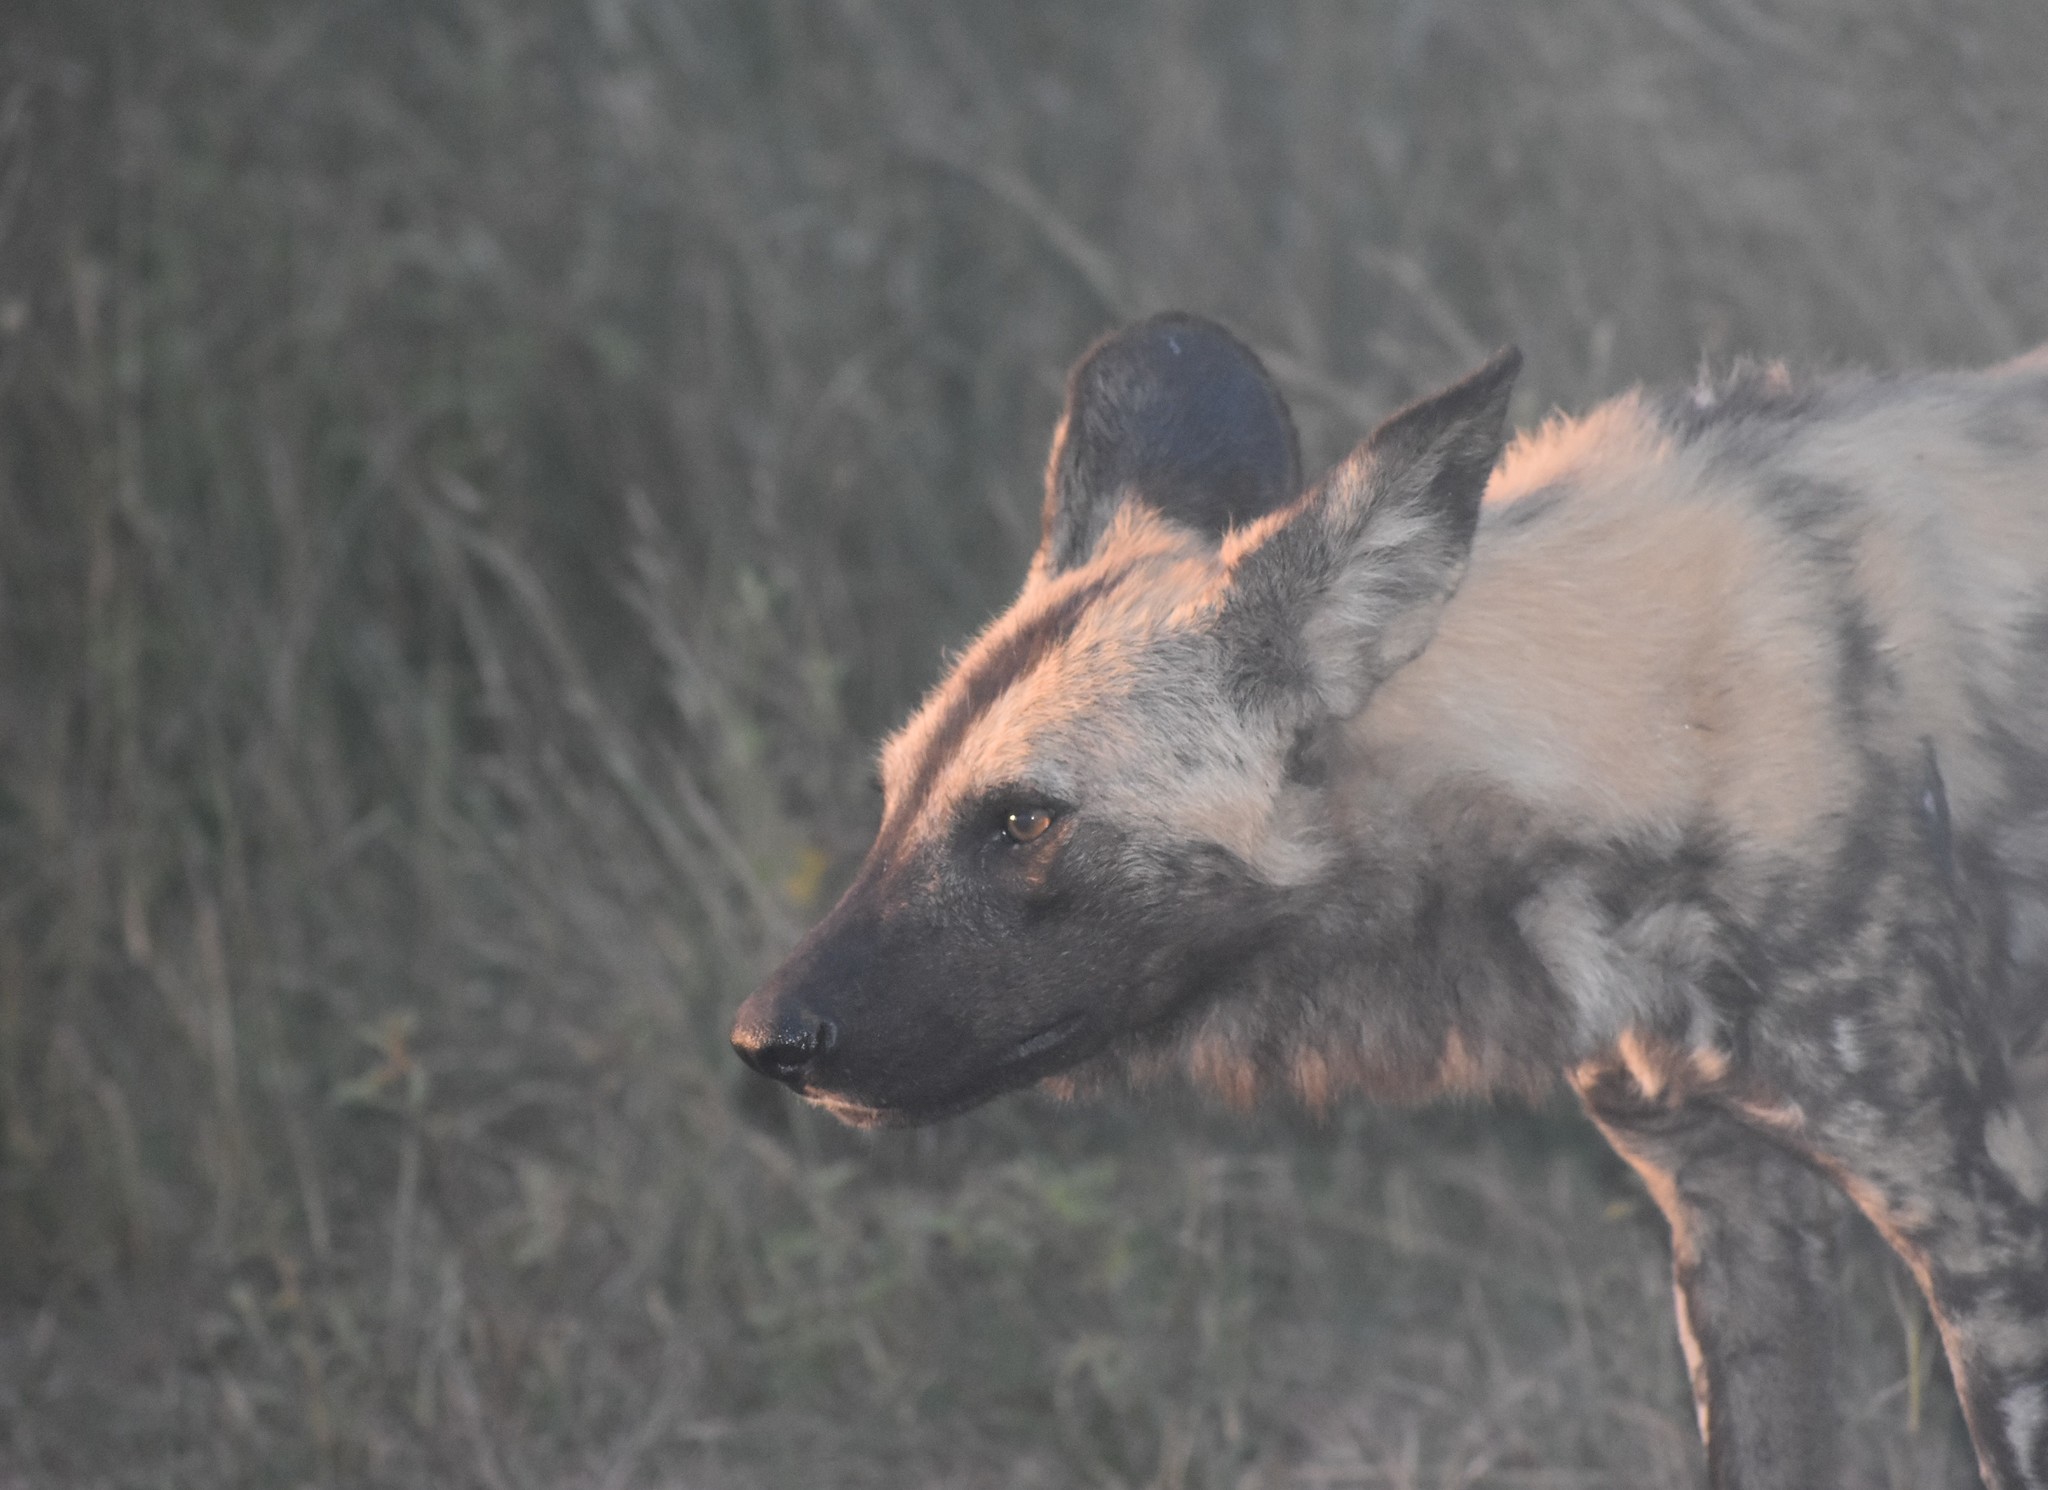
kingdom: Animalia
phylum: Chordata
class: Mammalia
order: Carnivora
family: Canidae
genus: Lycaon
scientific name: Lycaon pictus
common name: African wild dog
